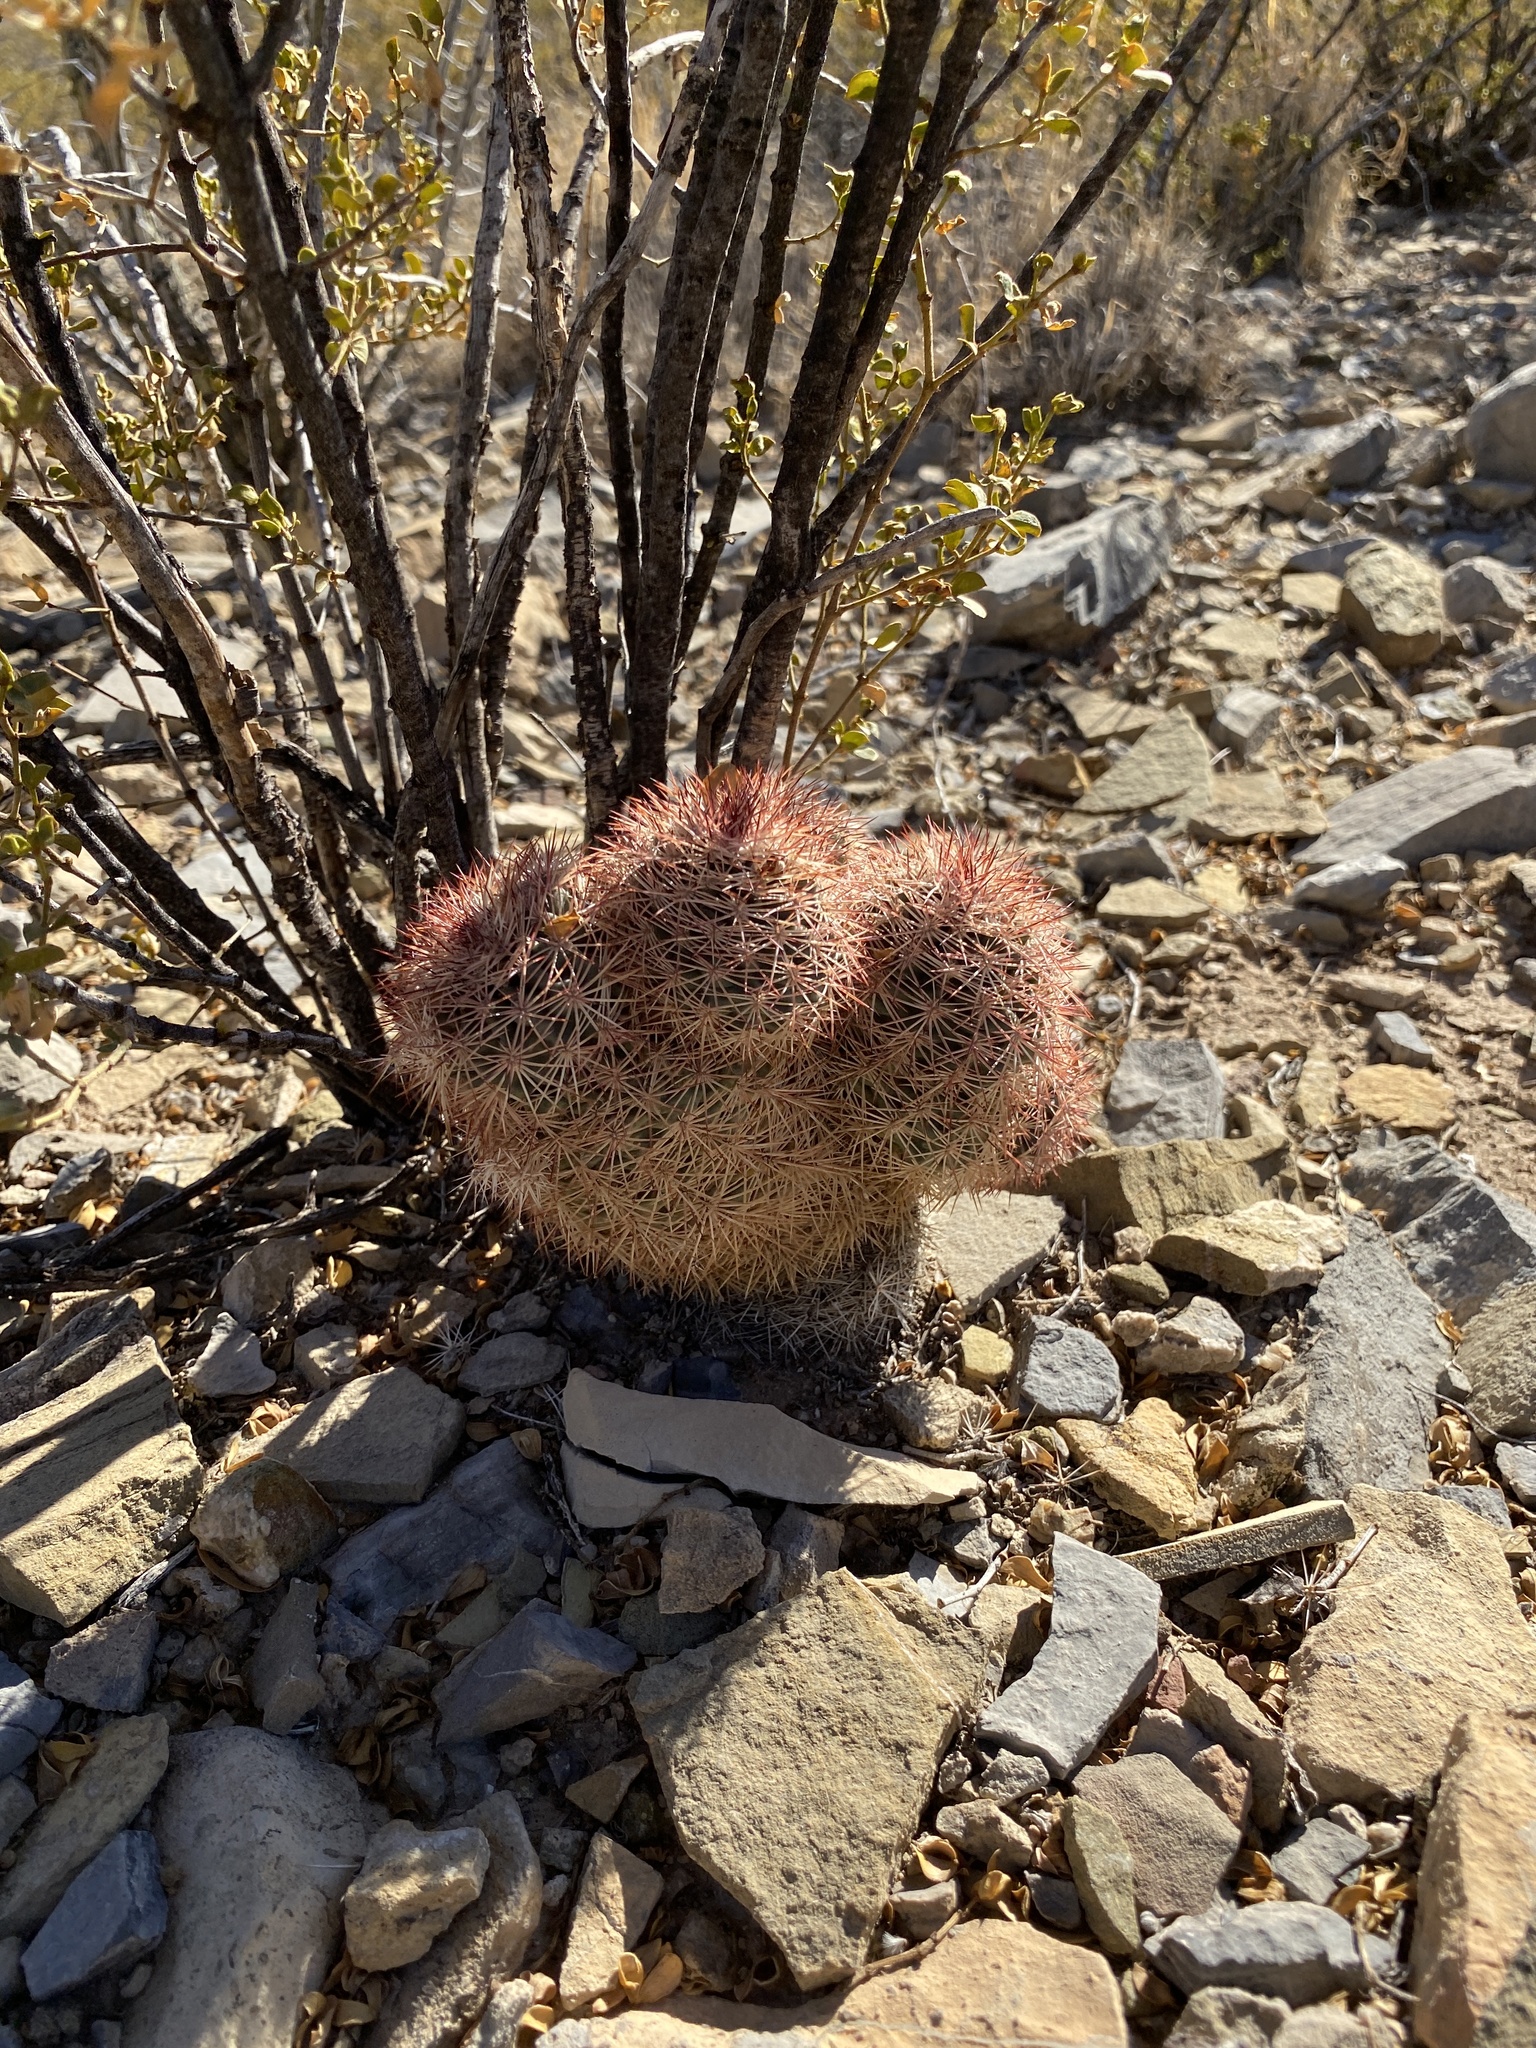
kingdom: Plantae
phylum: Tracheophyta
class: Magnoliopsida
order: Caryophyllales
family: Cactaceae
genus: Echinocereus
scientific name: Echinocereus dasyacanthus
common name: Spiny hedgehog cactus
